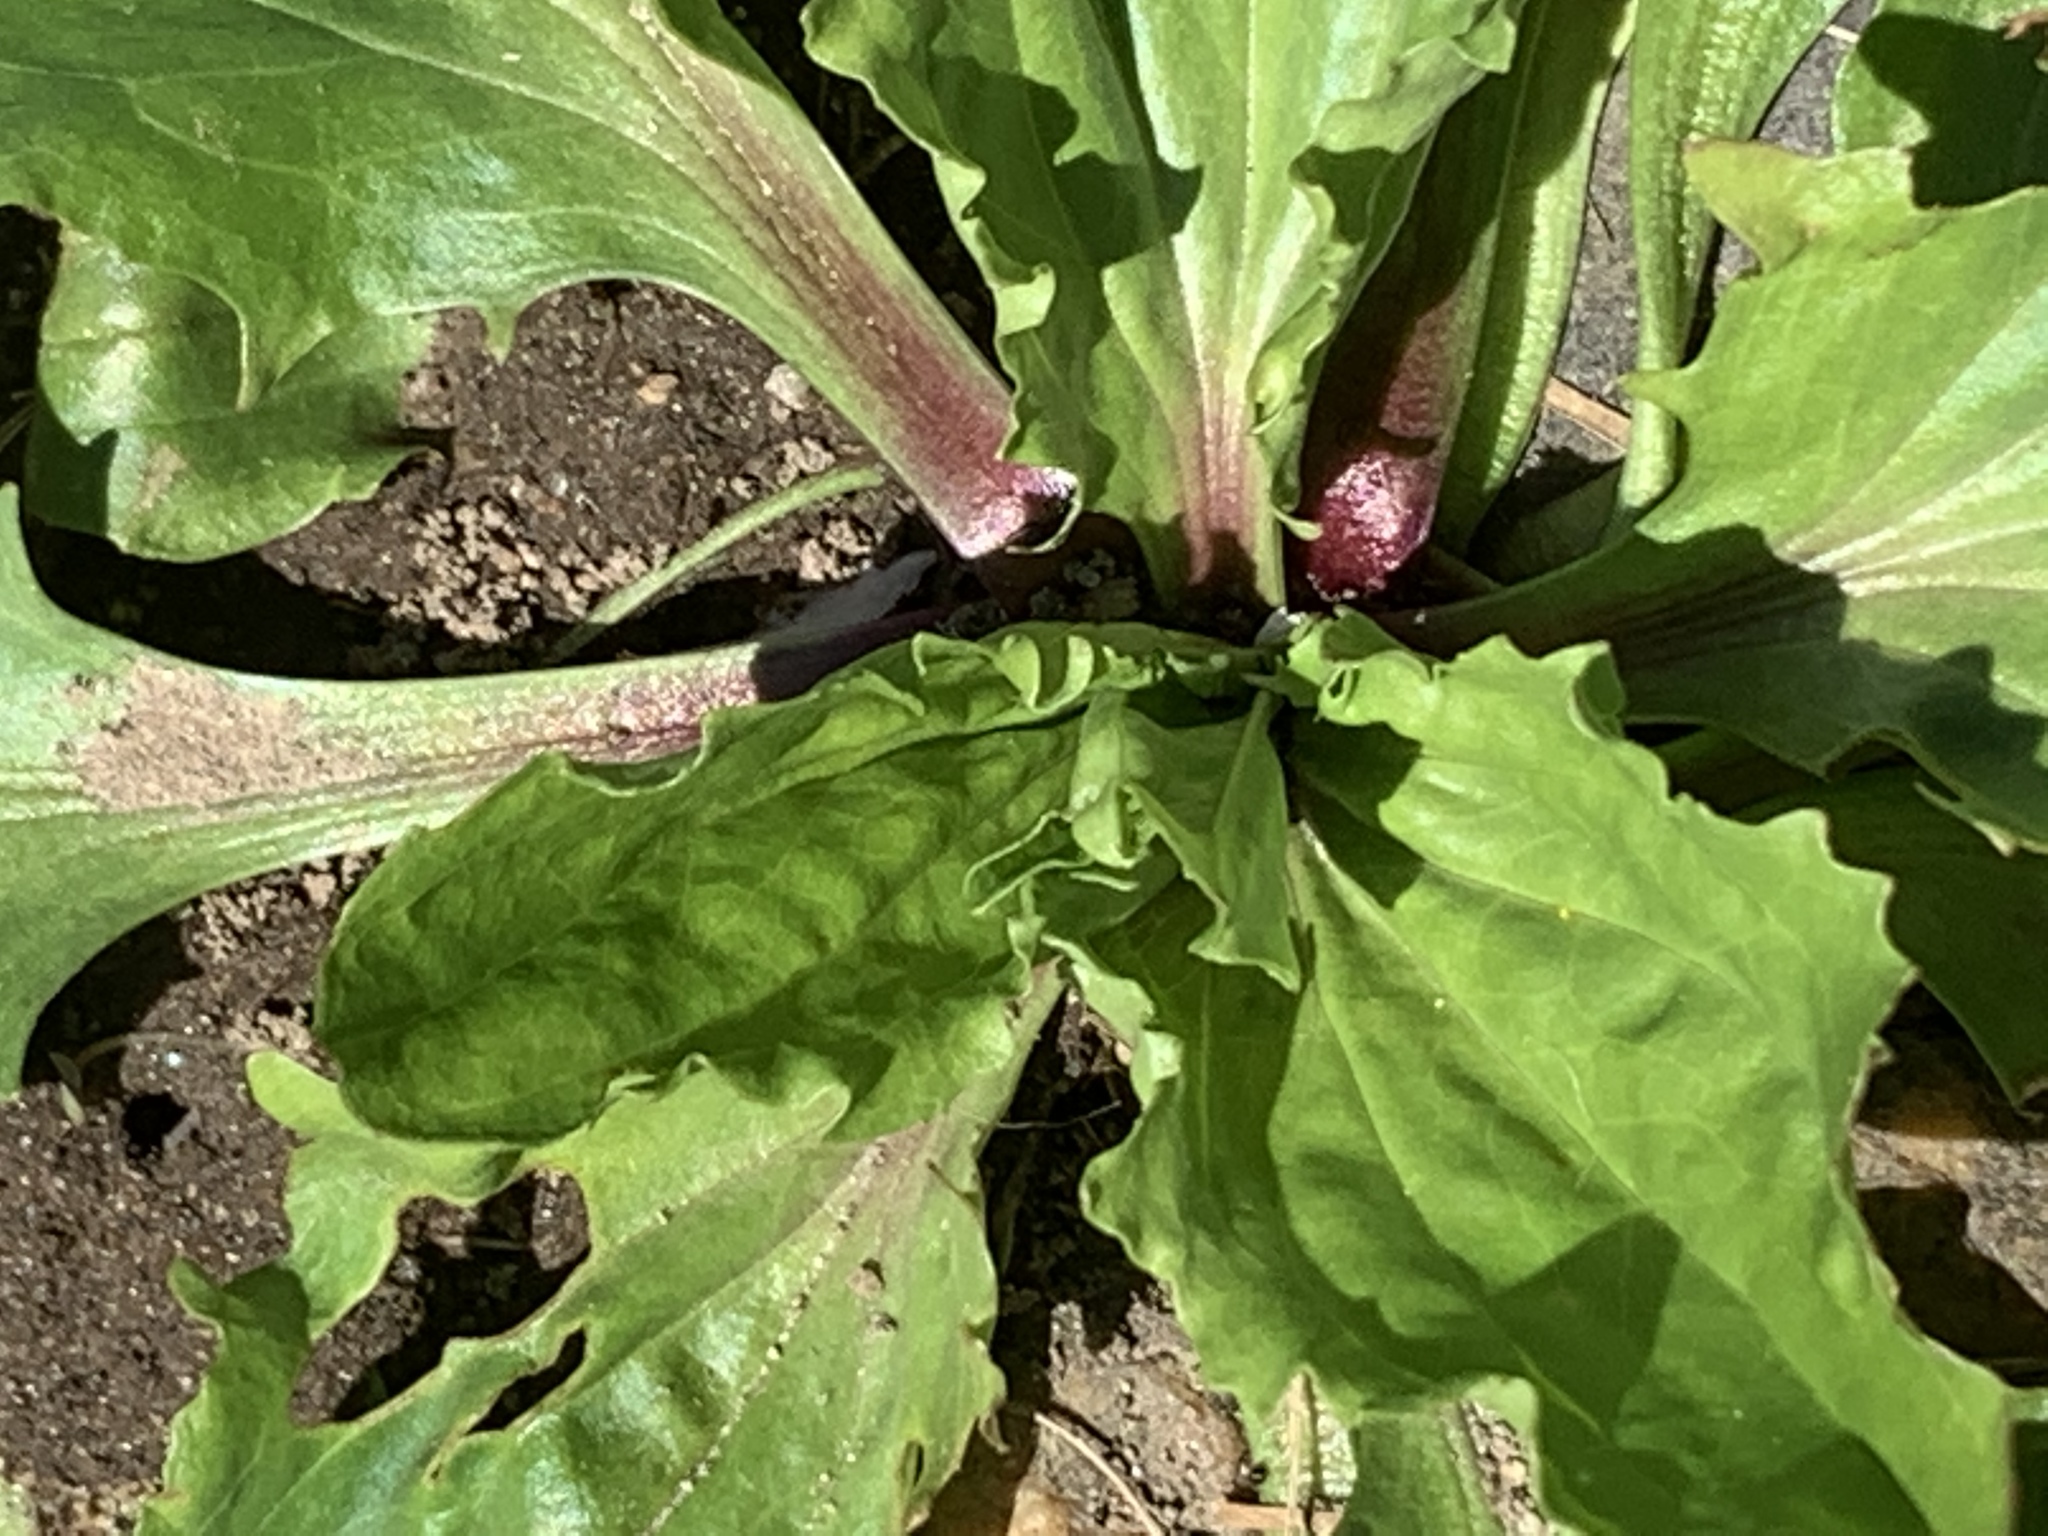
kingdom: Plantae
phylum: Tracheophyta
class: Magnoliopsida
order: Lamiales
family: Plantaginaceae
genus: Plantago
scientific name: Plantago rugelii
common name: American plantain
